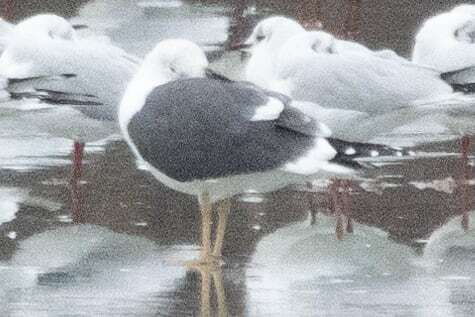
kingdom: Animalia
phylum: Chordata
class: Aves
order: Charadriiformes
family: Laridae
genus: Larus
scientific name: Larus fuscus
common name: Lesser black-backed gull
